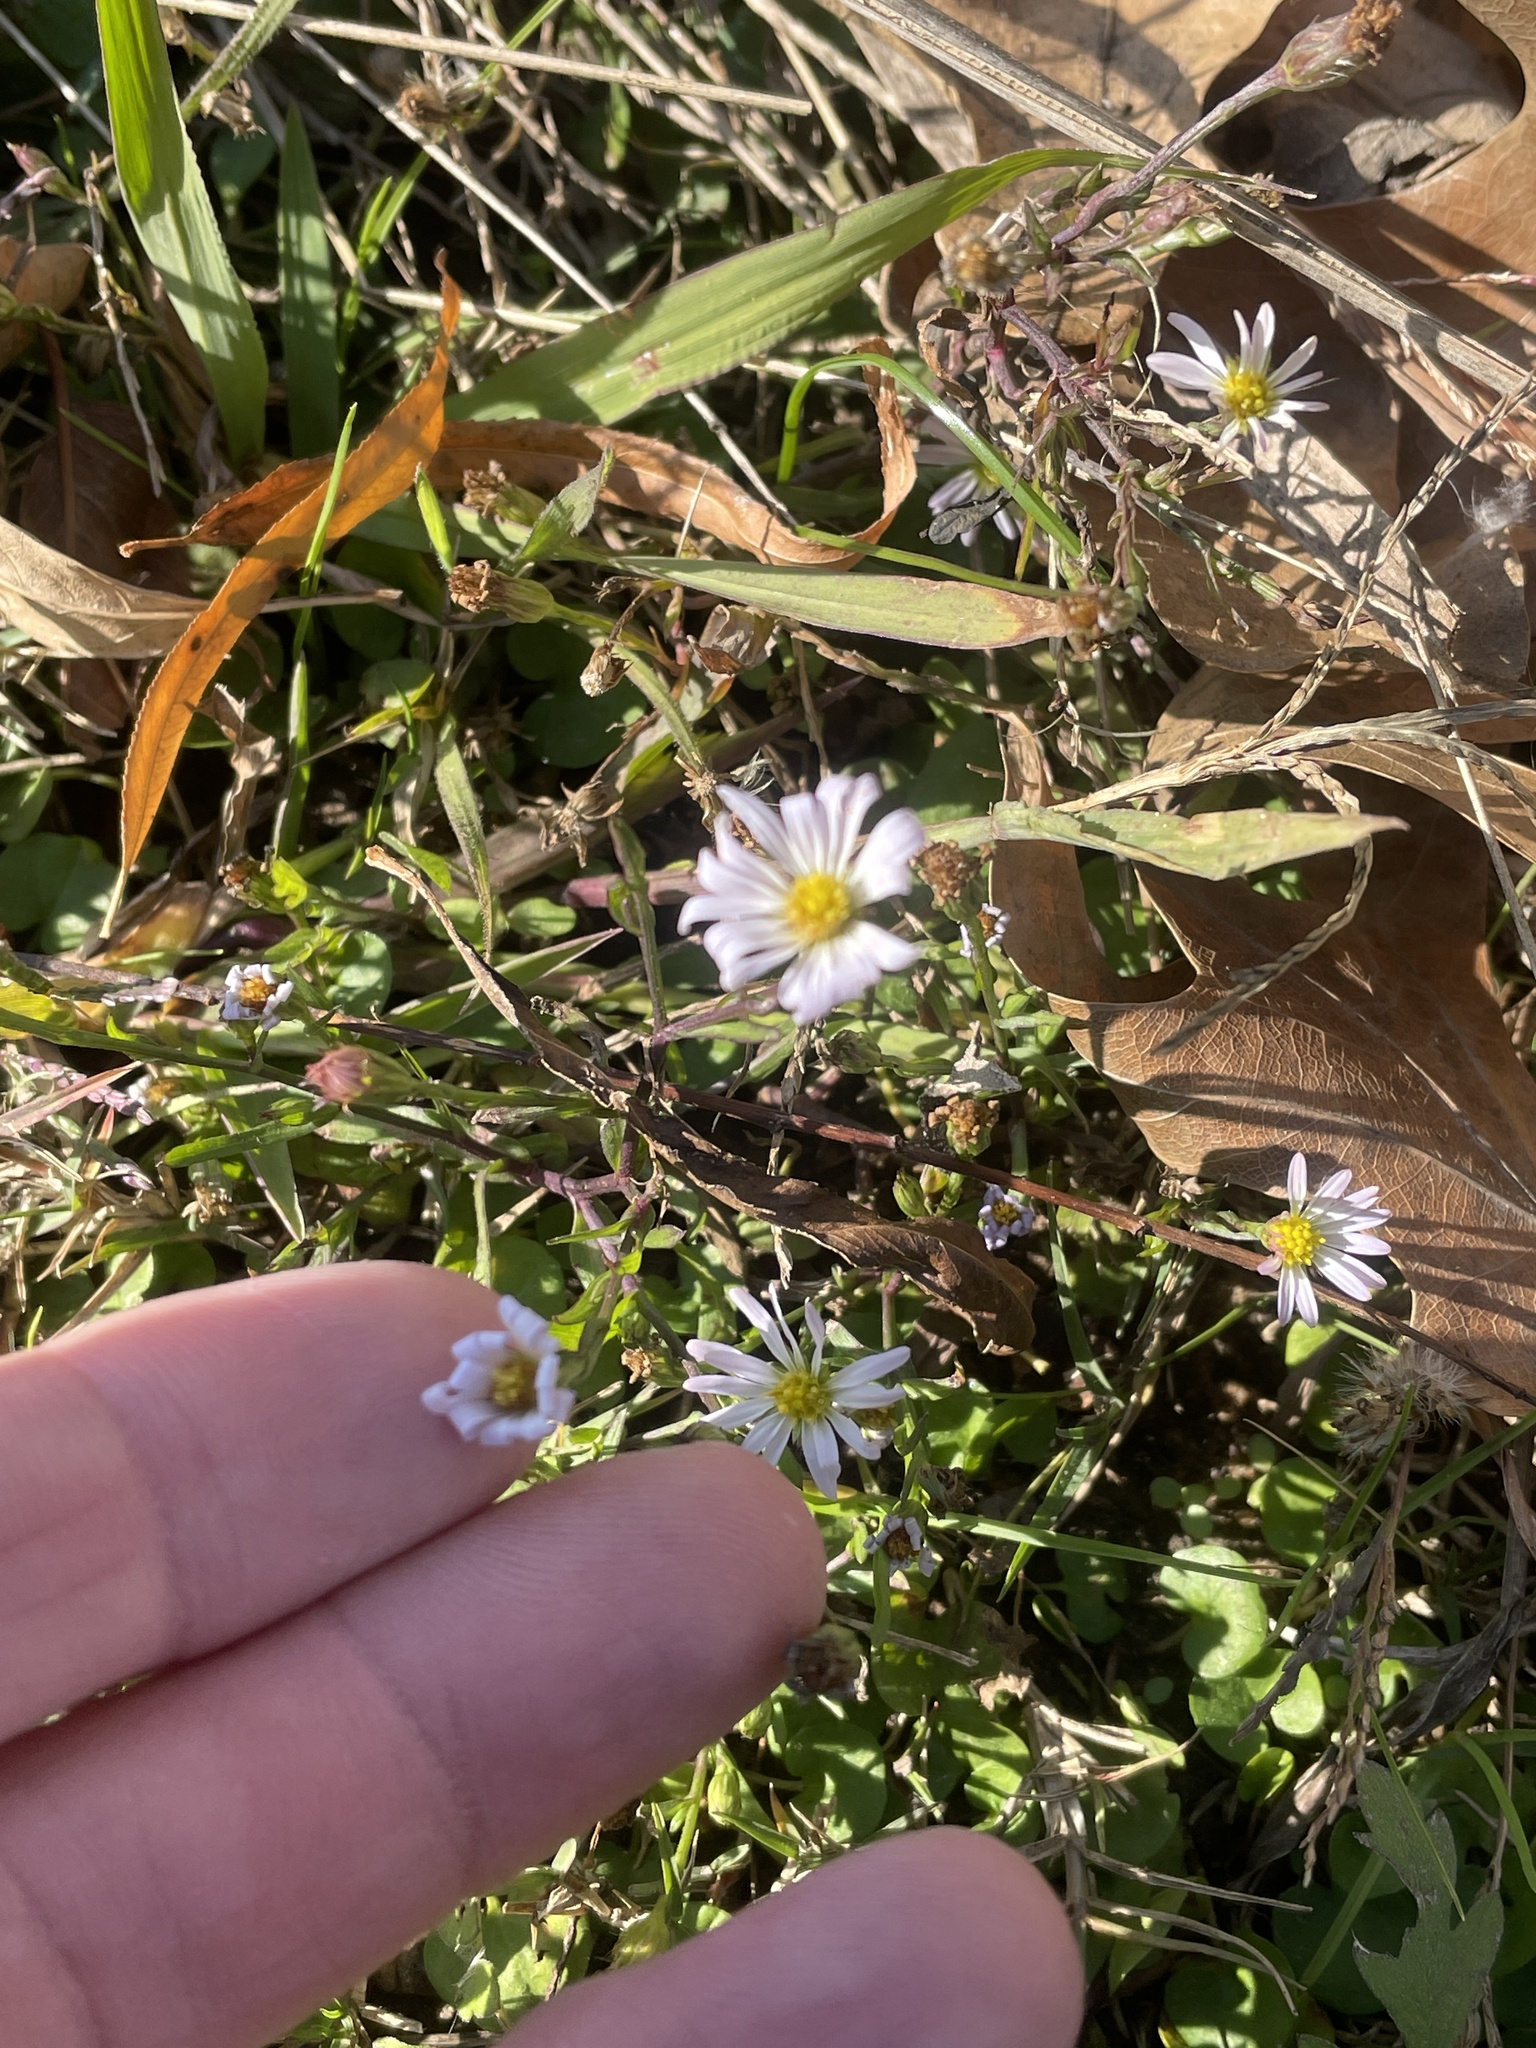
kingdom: Plantae
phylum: Tracheophyta
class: Magnoliopsida
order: Asterales
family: Asteraceae
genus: Symphyotrichum
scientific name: Symphyotrichum divaricatum
